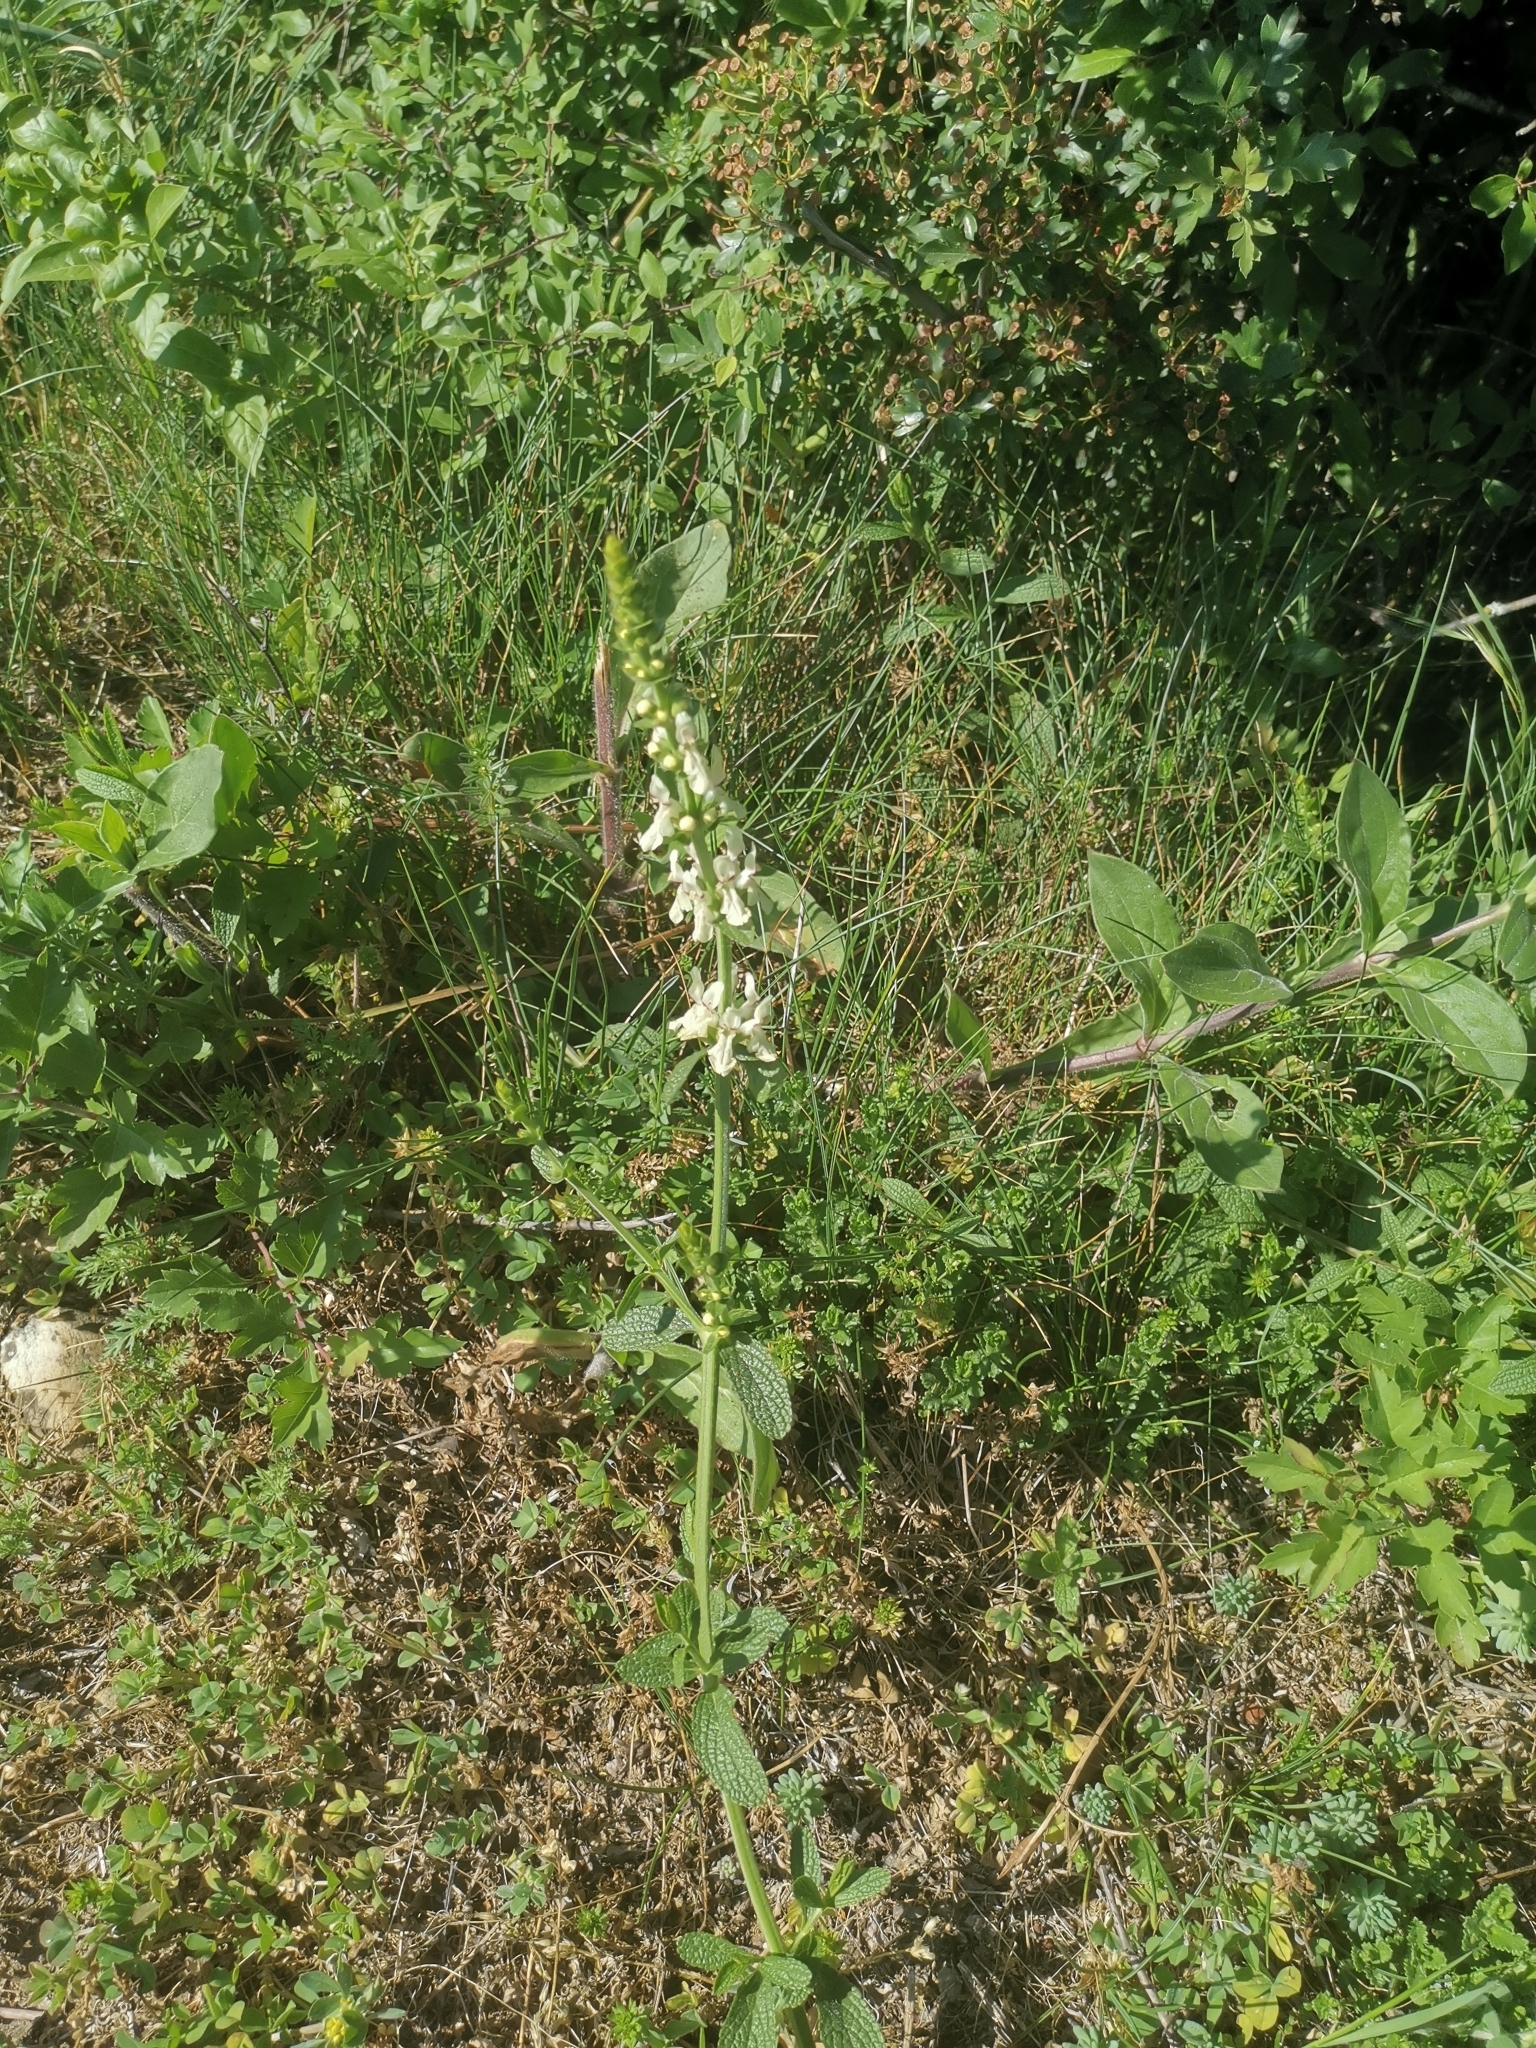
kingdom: Plantae
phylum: Tracheophyta
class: Magnoliopsida
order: Lamiales
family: Lamiaceae
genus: Stachys
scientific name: Stachys recta
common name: Perennial yellow-woundwort
